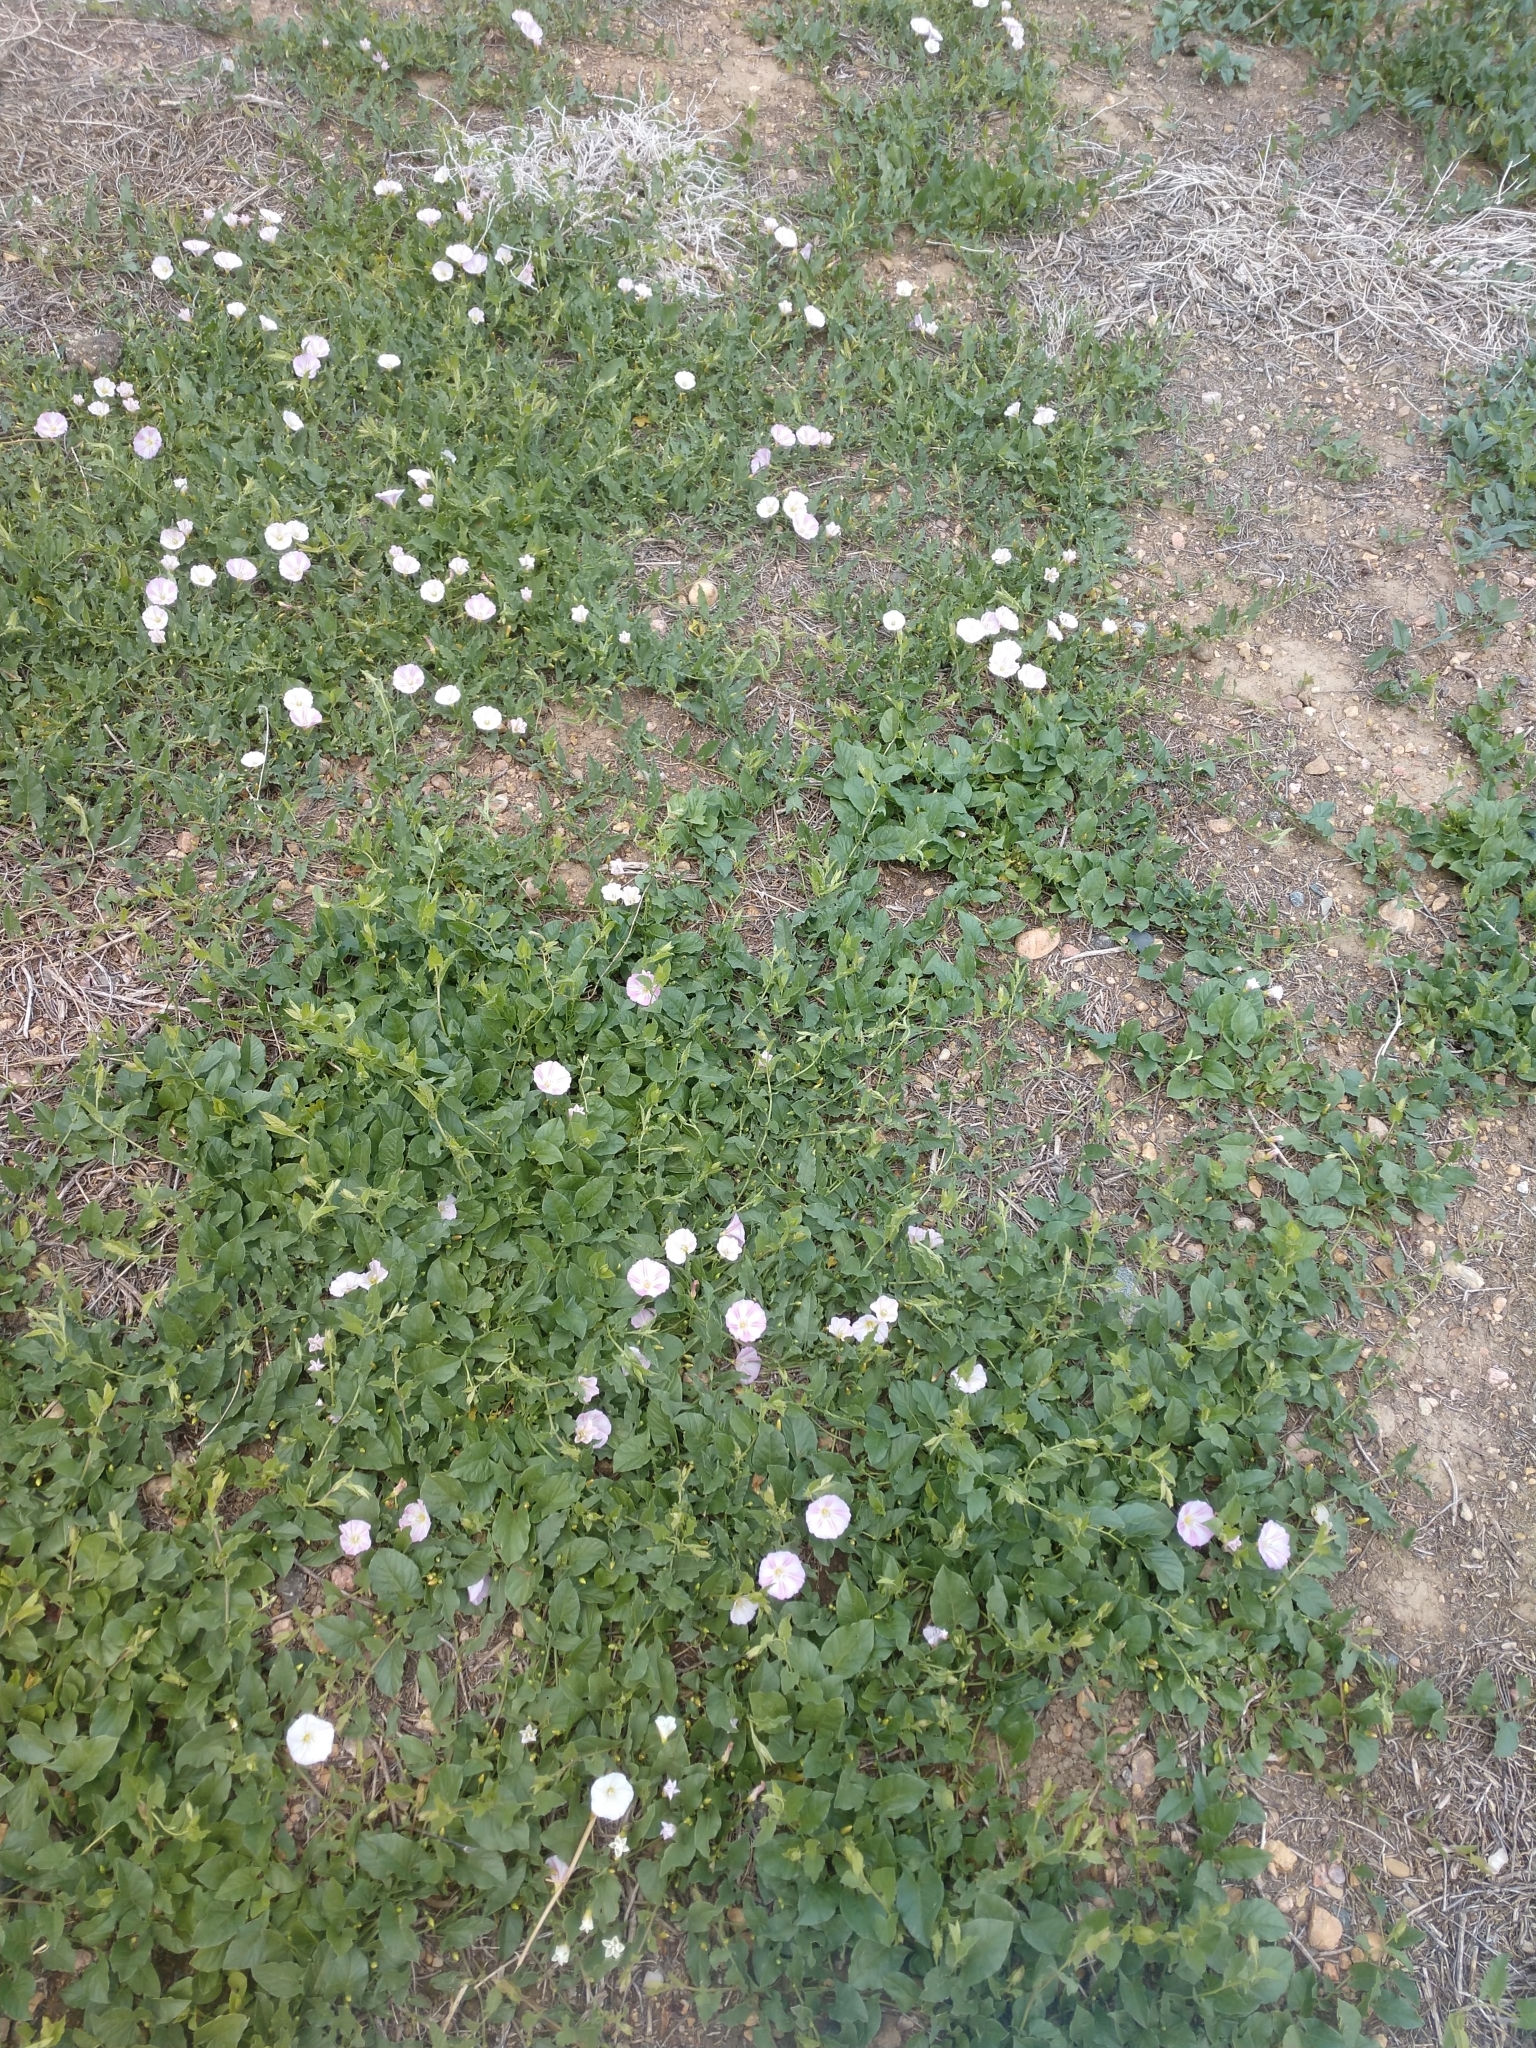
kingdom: Plantae
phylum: Tracheophyta
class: Magnoliopsida
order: Solanales
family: Convolvulaceae
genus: Convolvulus
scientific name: Convolvulus arvensis
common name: Field bindweed
